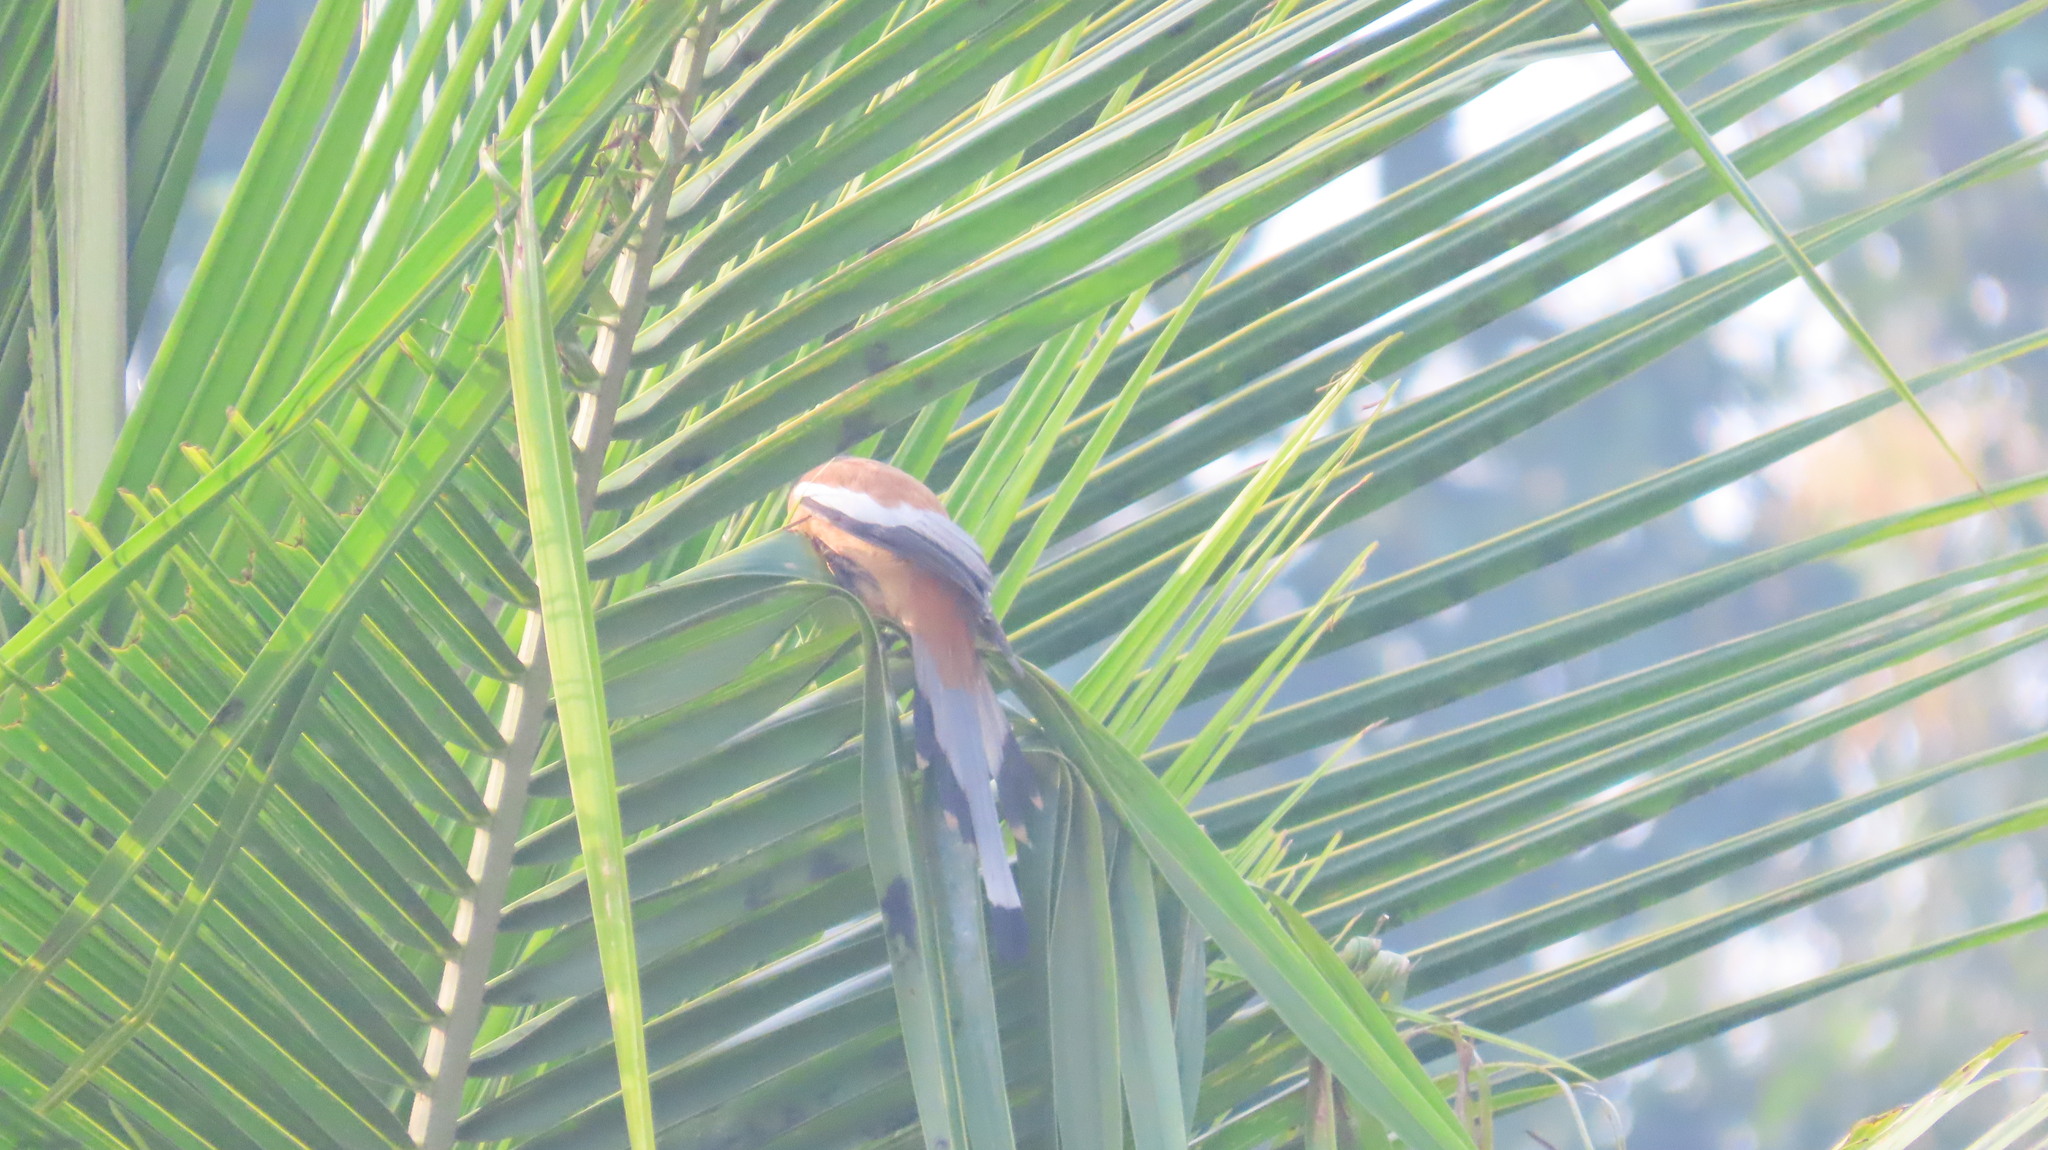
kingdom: Animalia
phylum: Chordata
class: Aves
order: Passeriformes
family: Corvidae
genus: Dendrocitta
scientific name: Dendrocitta vagabunda
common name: Rufous treepie
